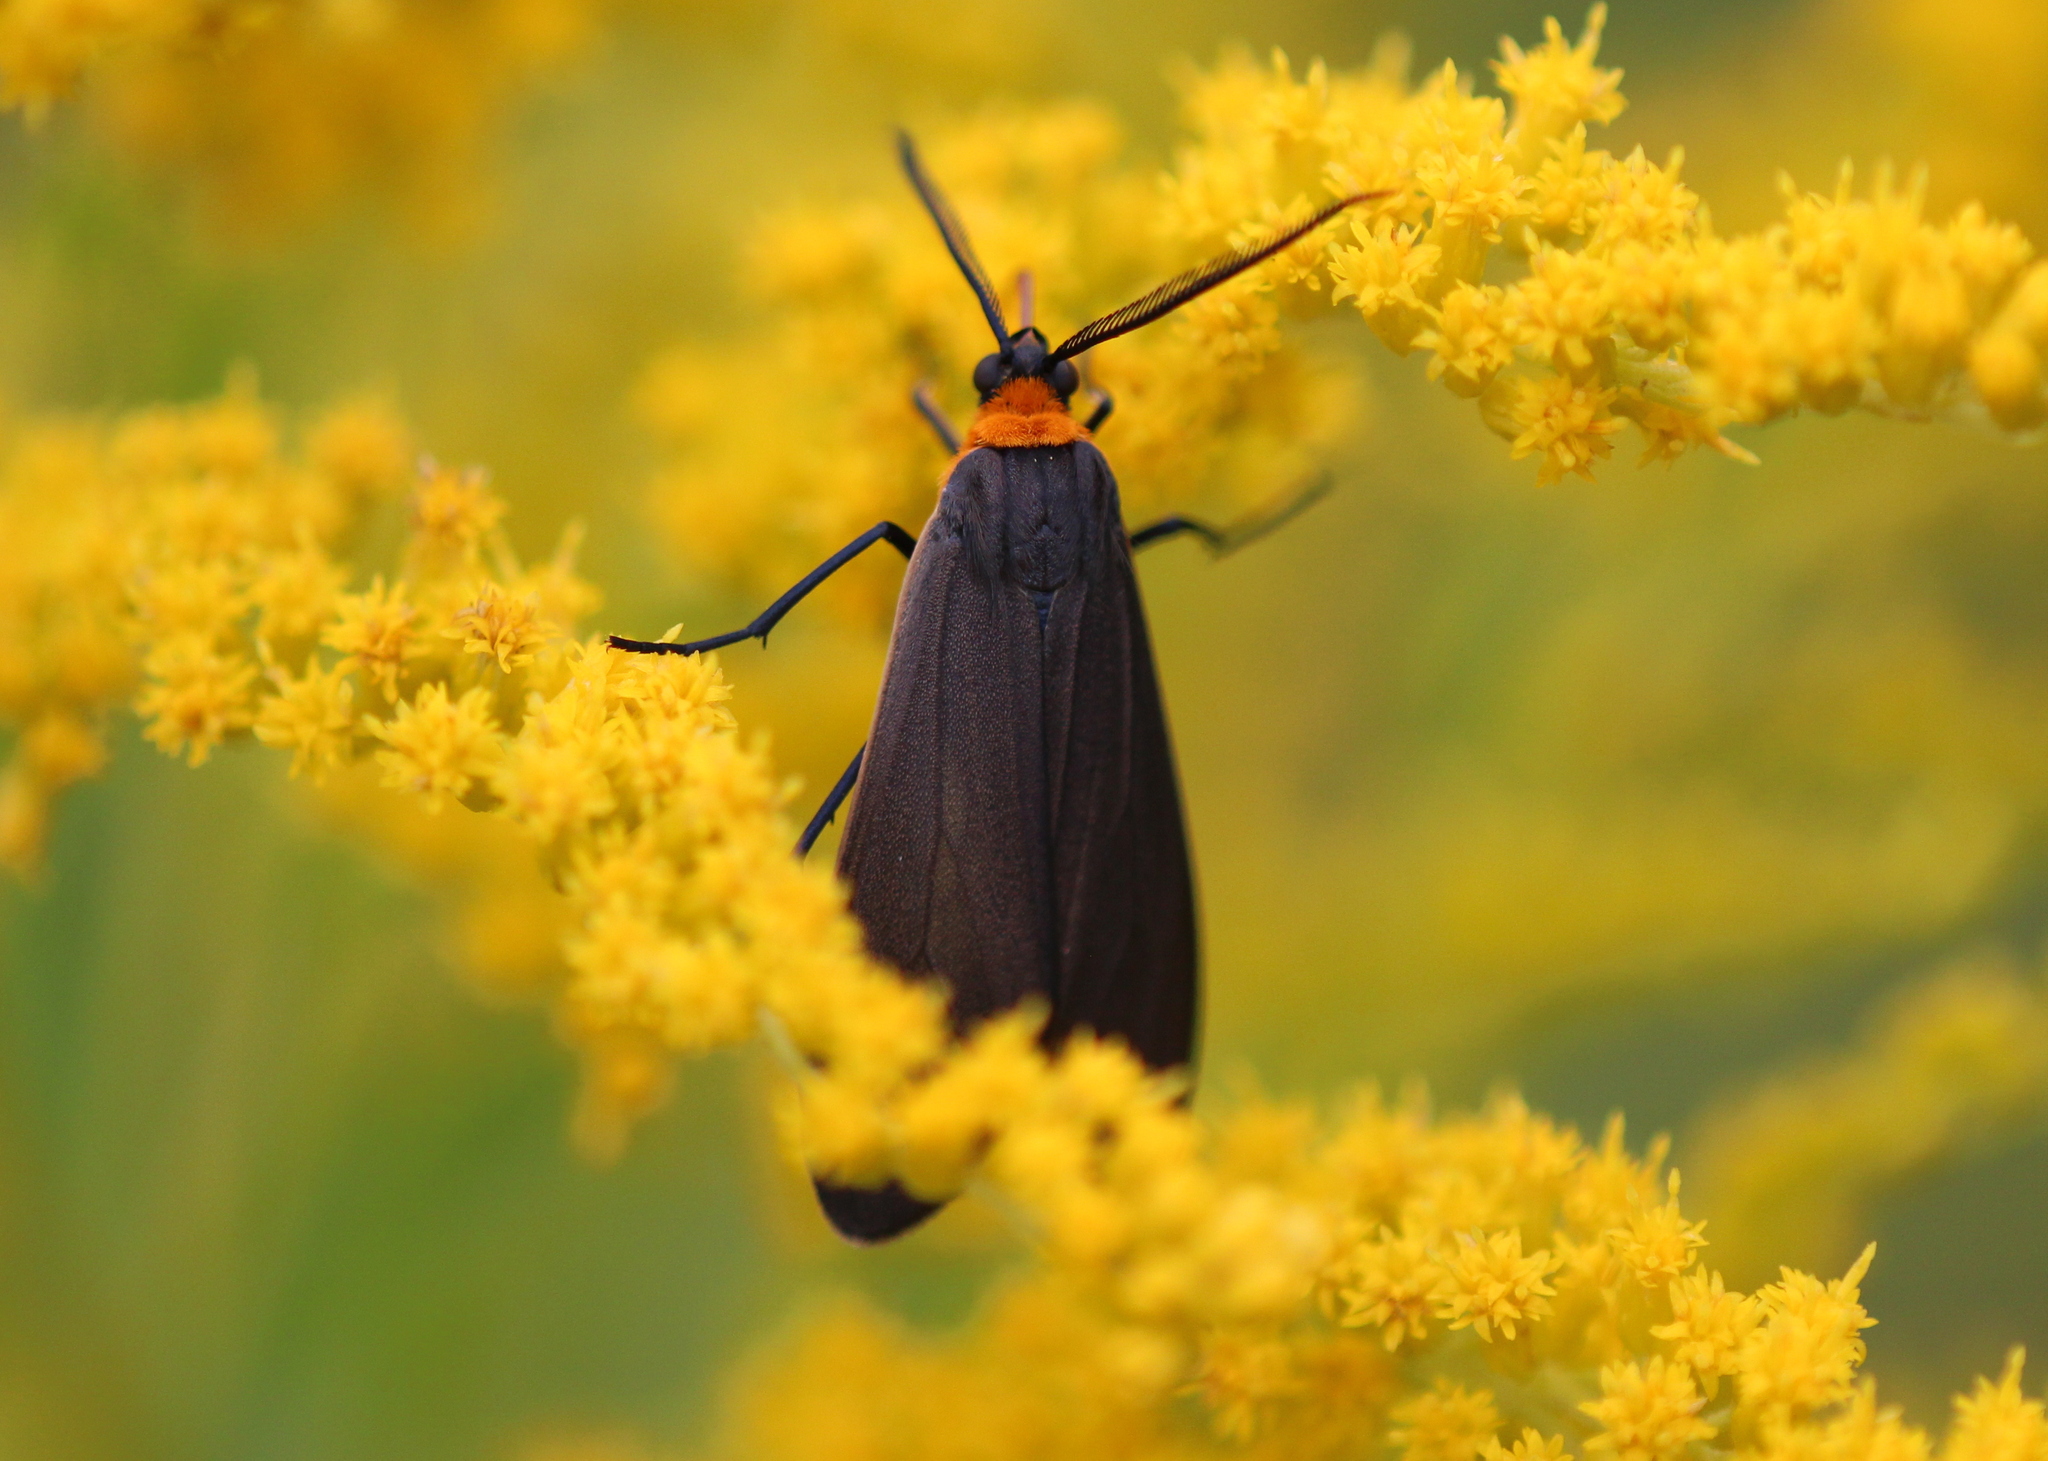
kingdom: Animalia
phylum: Arthropoda
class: Insecta
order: Lepidoptera
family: Erebidae
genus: Cisseps
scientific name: Cisseps fulvicollis
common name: Yellow-collared scape moth
